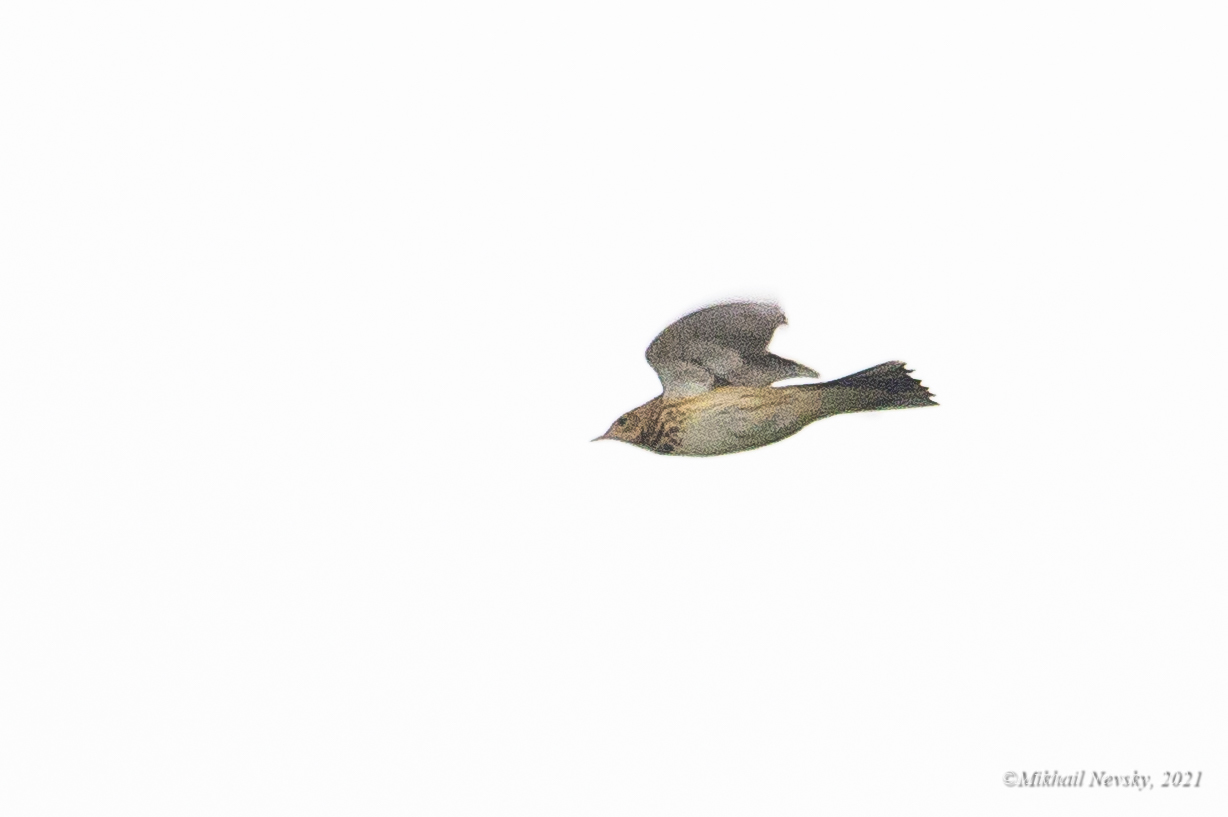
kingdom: Animalia
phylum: Chordata
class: Aves
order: Passeriformes
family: Motacillidae
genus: Anthus
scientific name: Anthus trivialis
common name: Tree pipit
